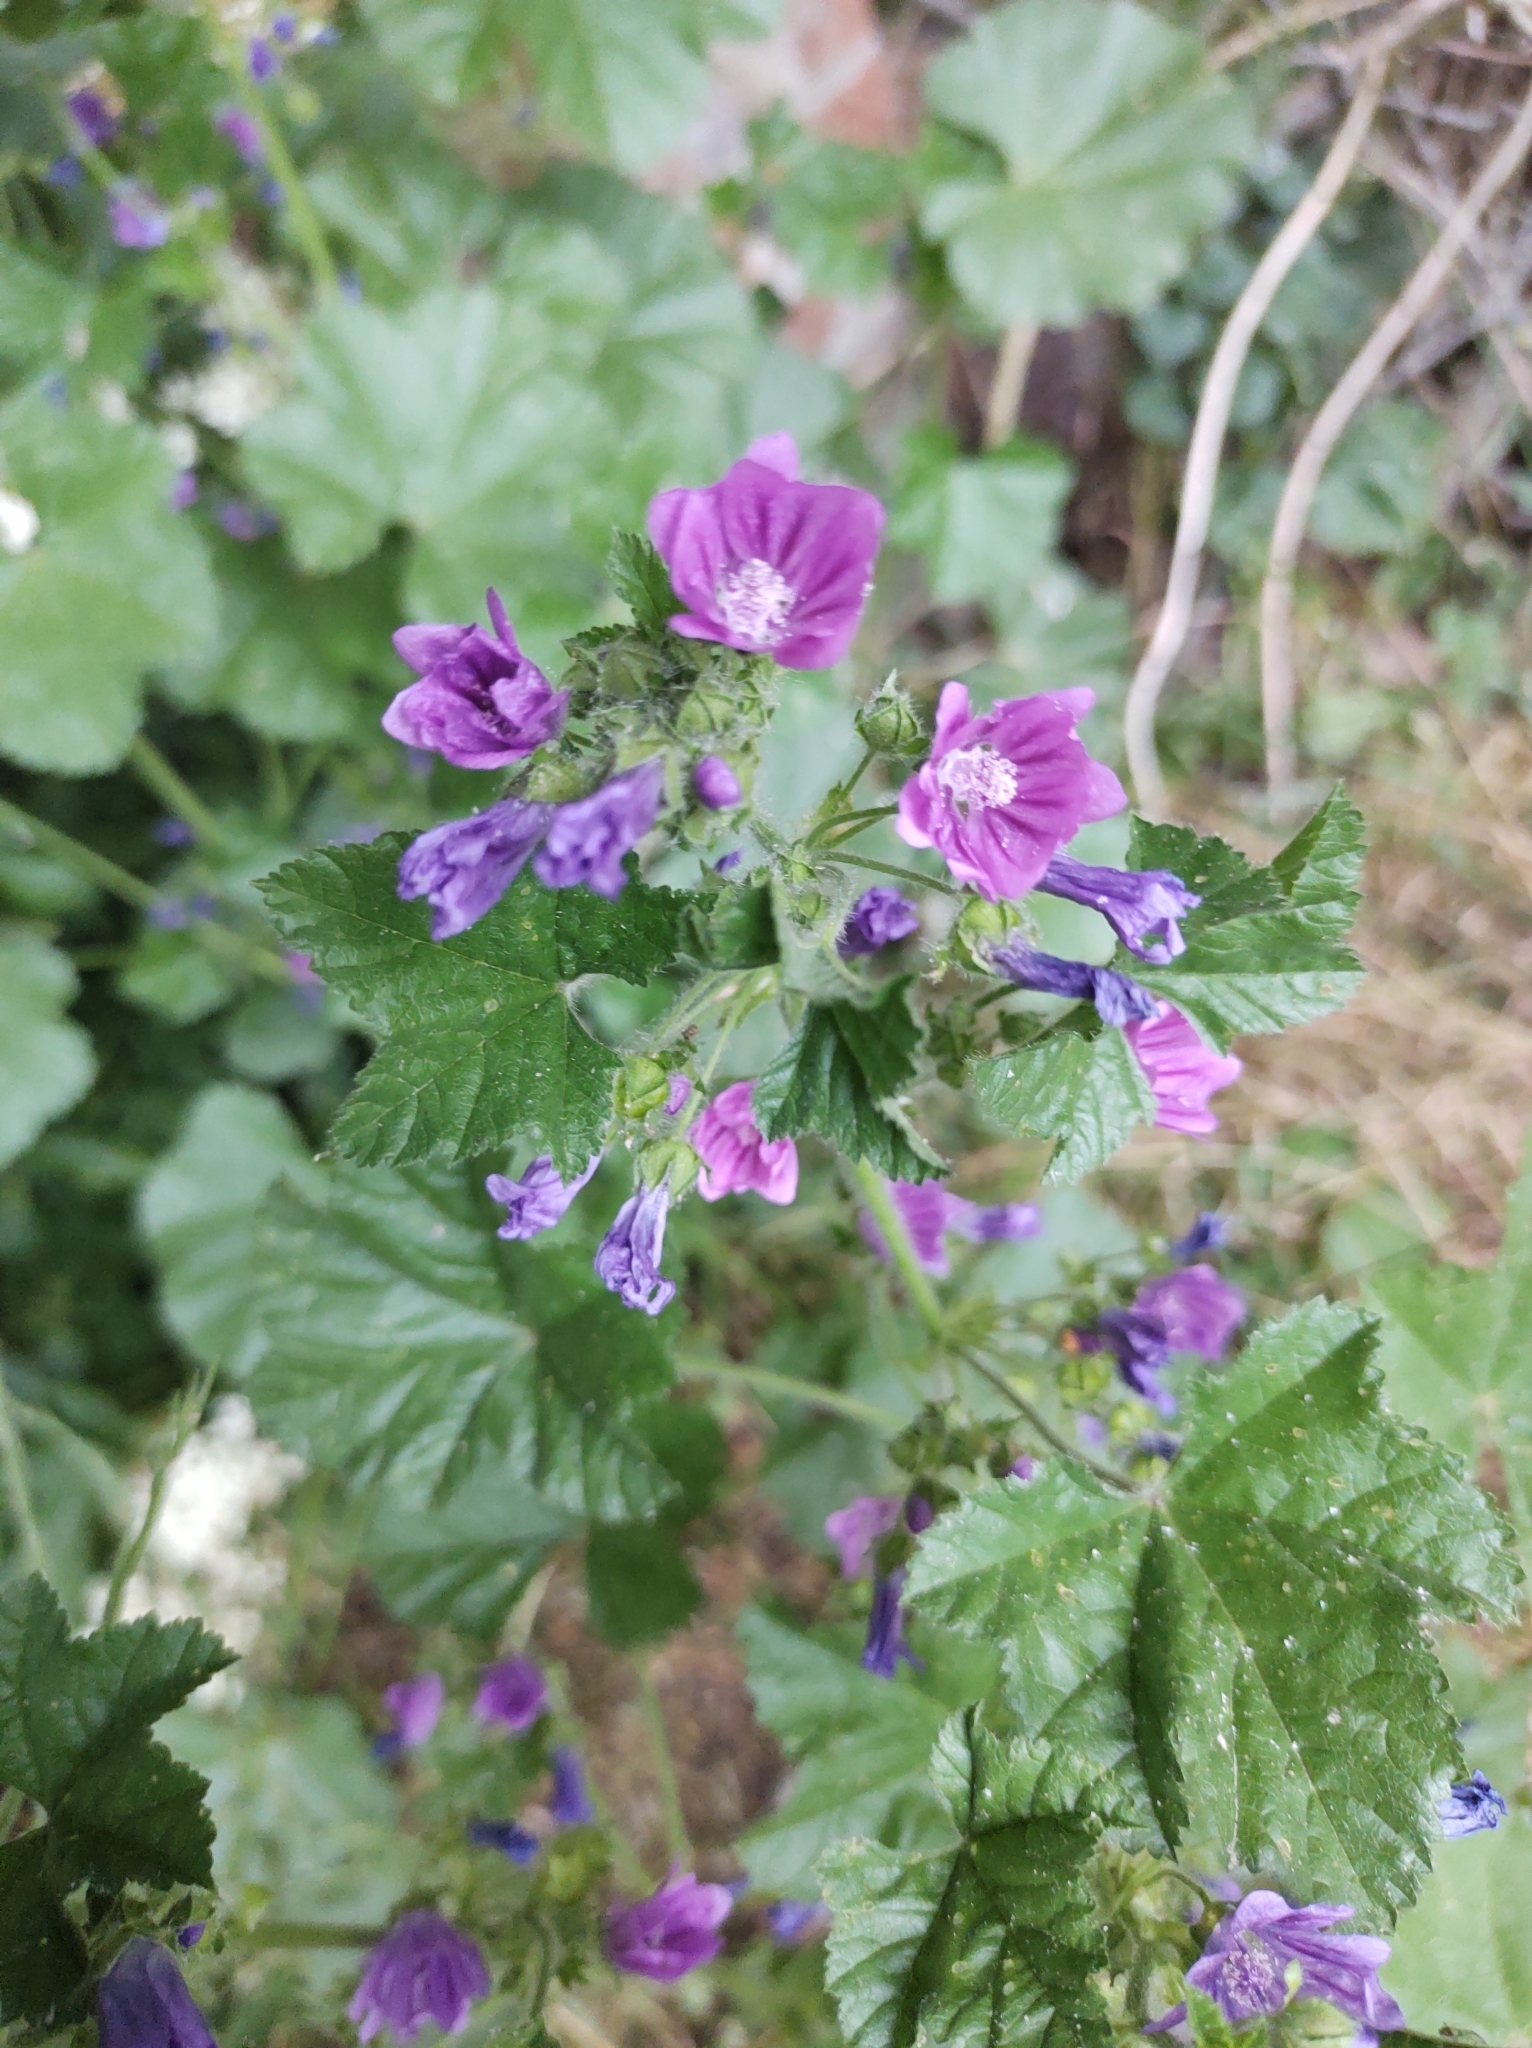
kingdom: Plantae
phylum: Tracheophyta
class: Magnoliopsida
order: Malvales
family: Malvaceae
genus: Malva
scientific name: Malva sylvestris
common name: Common mallow
